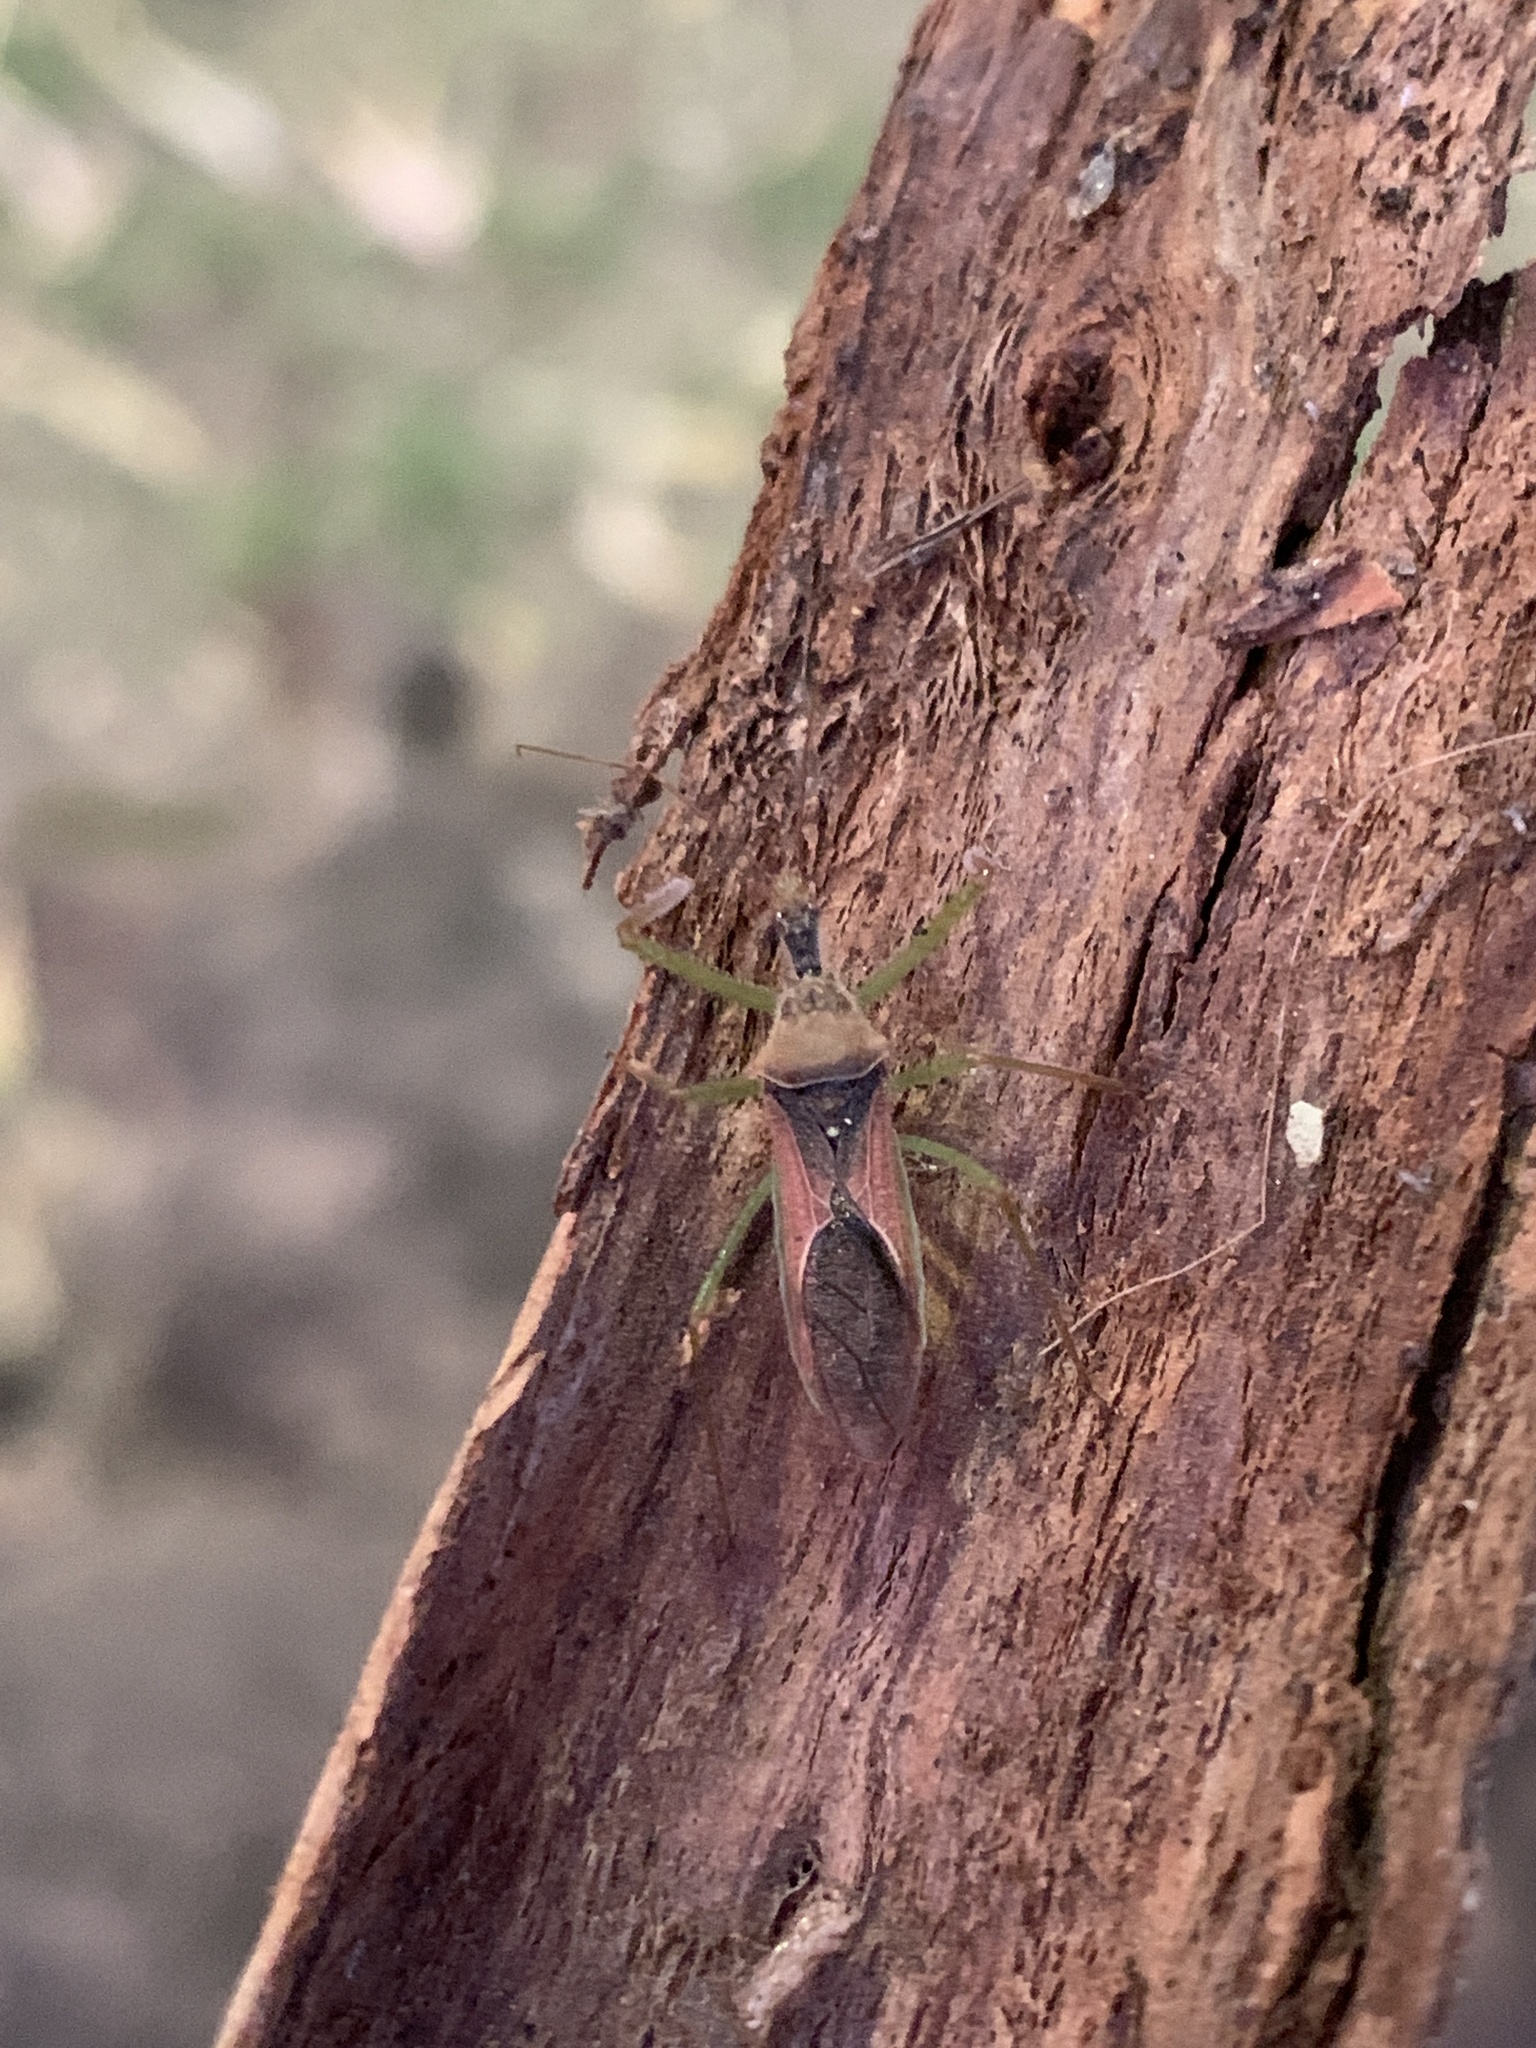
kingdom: Animalia
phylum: Arthropoda
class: Insecta
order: Hemiptera
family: Reduviidae
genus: Zelus
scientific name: Zelus renardii
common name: Assassin bug
